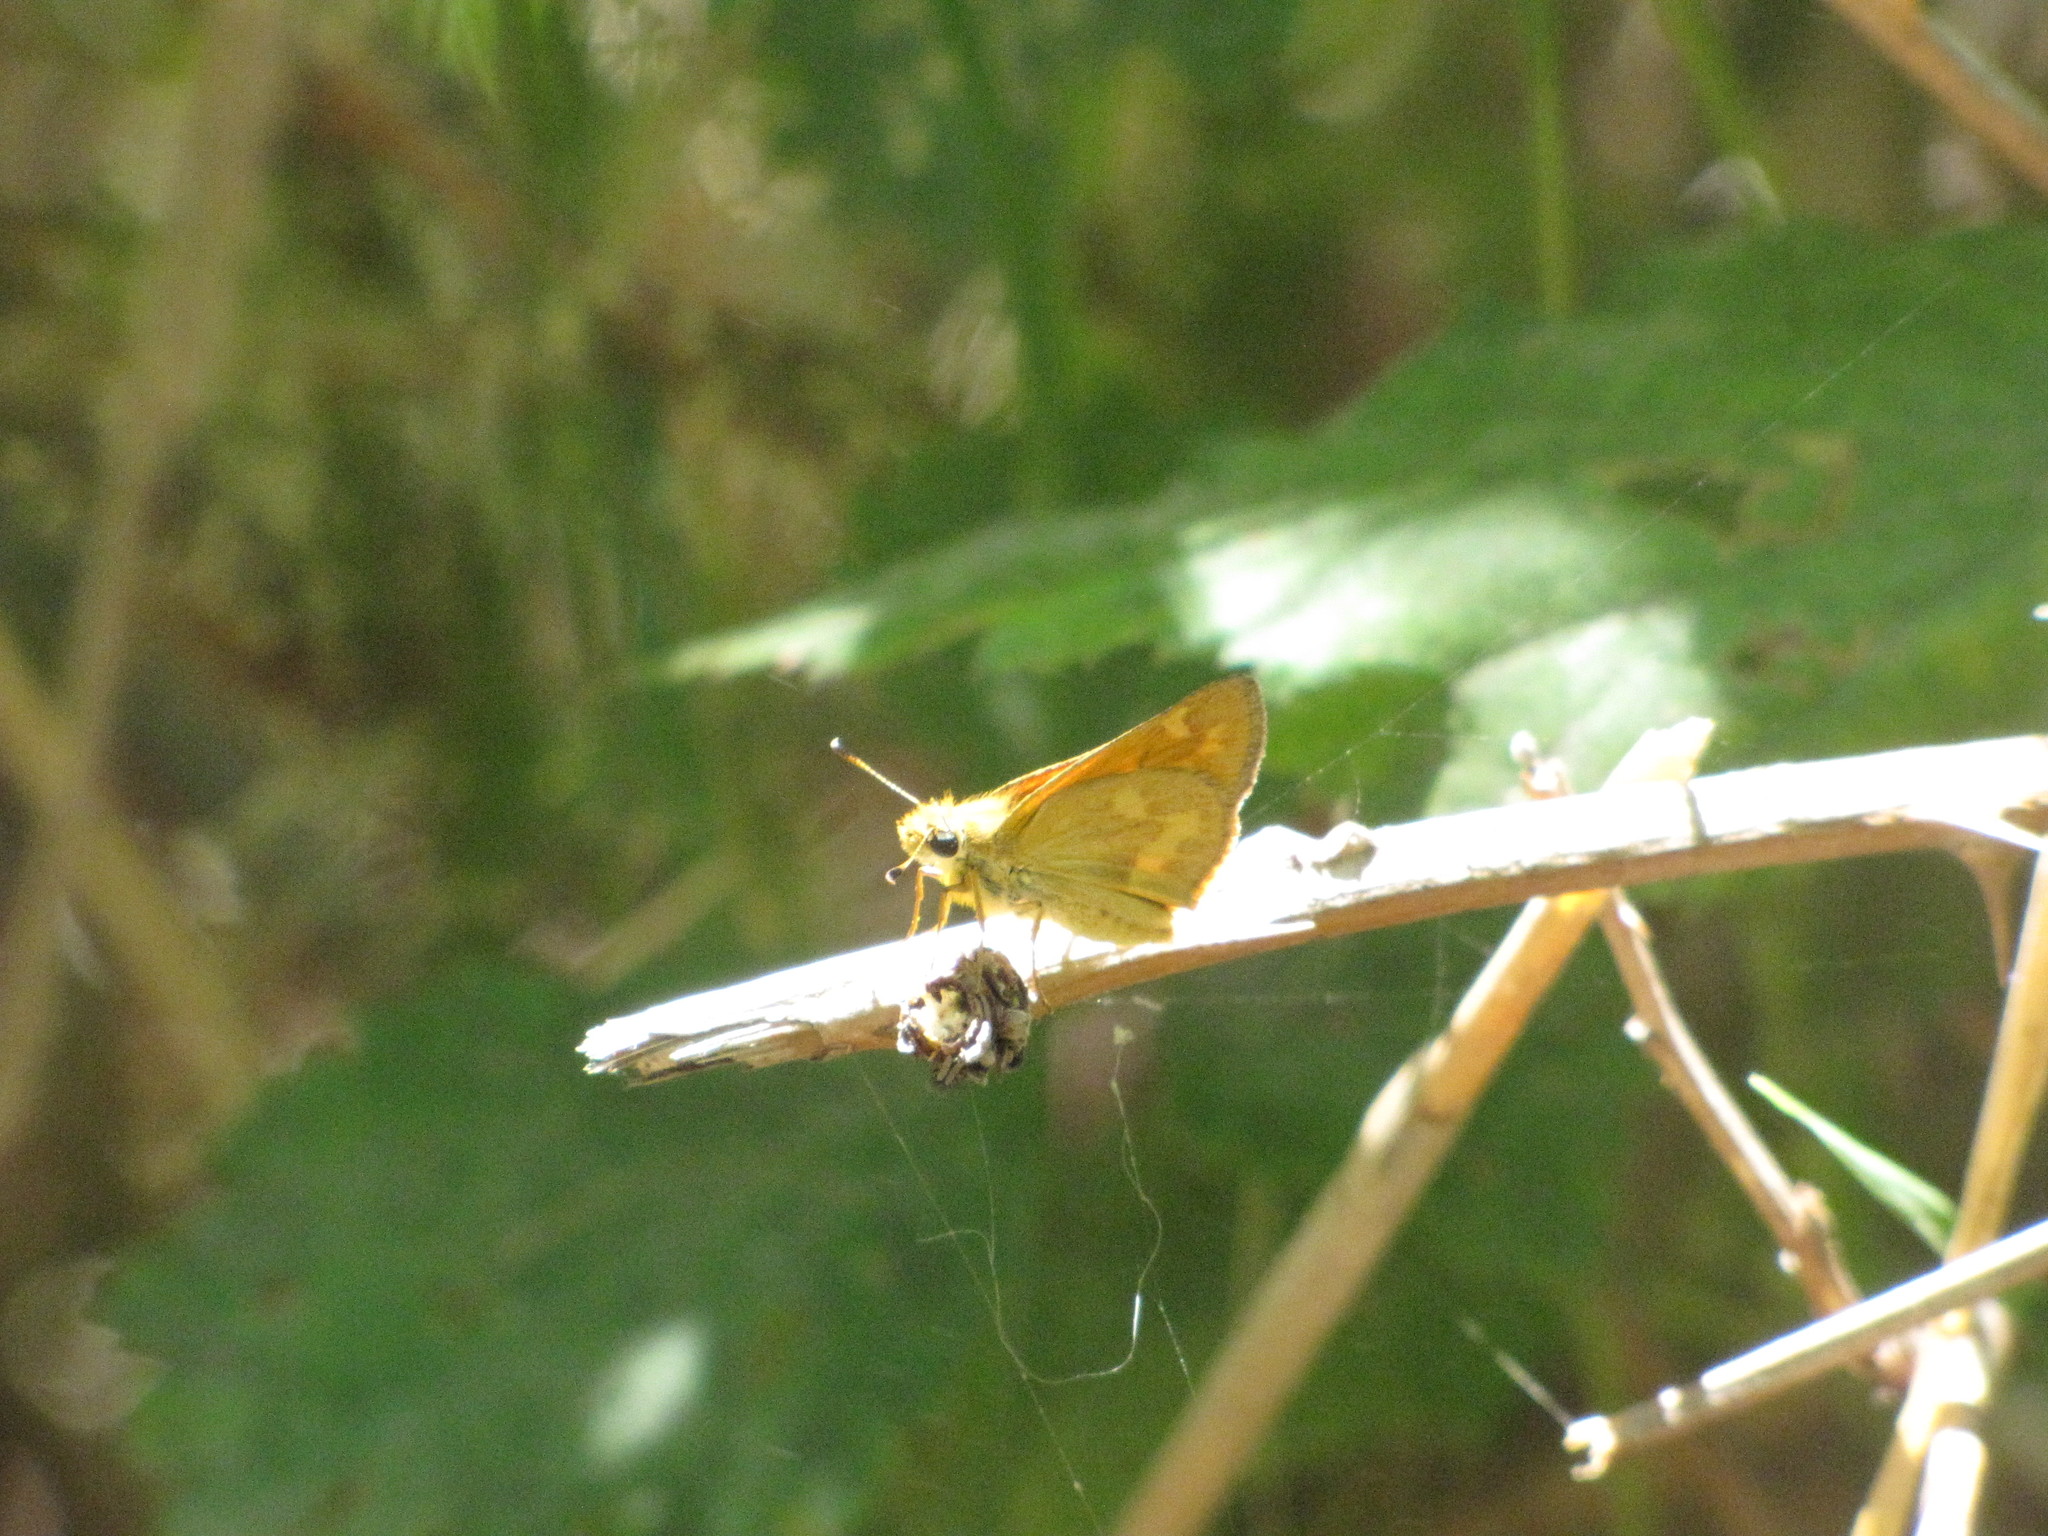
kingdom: Animalia
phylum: Arthropoda
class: Insecta
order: Lepidoptera
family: Hesperiidae
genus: Ochlodes
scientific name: Ochlodes sylvanoides
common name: Woodland skipper
